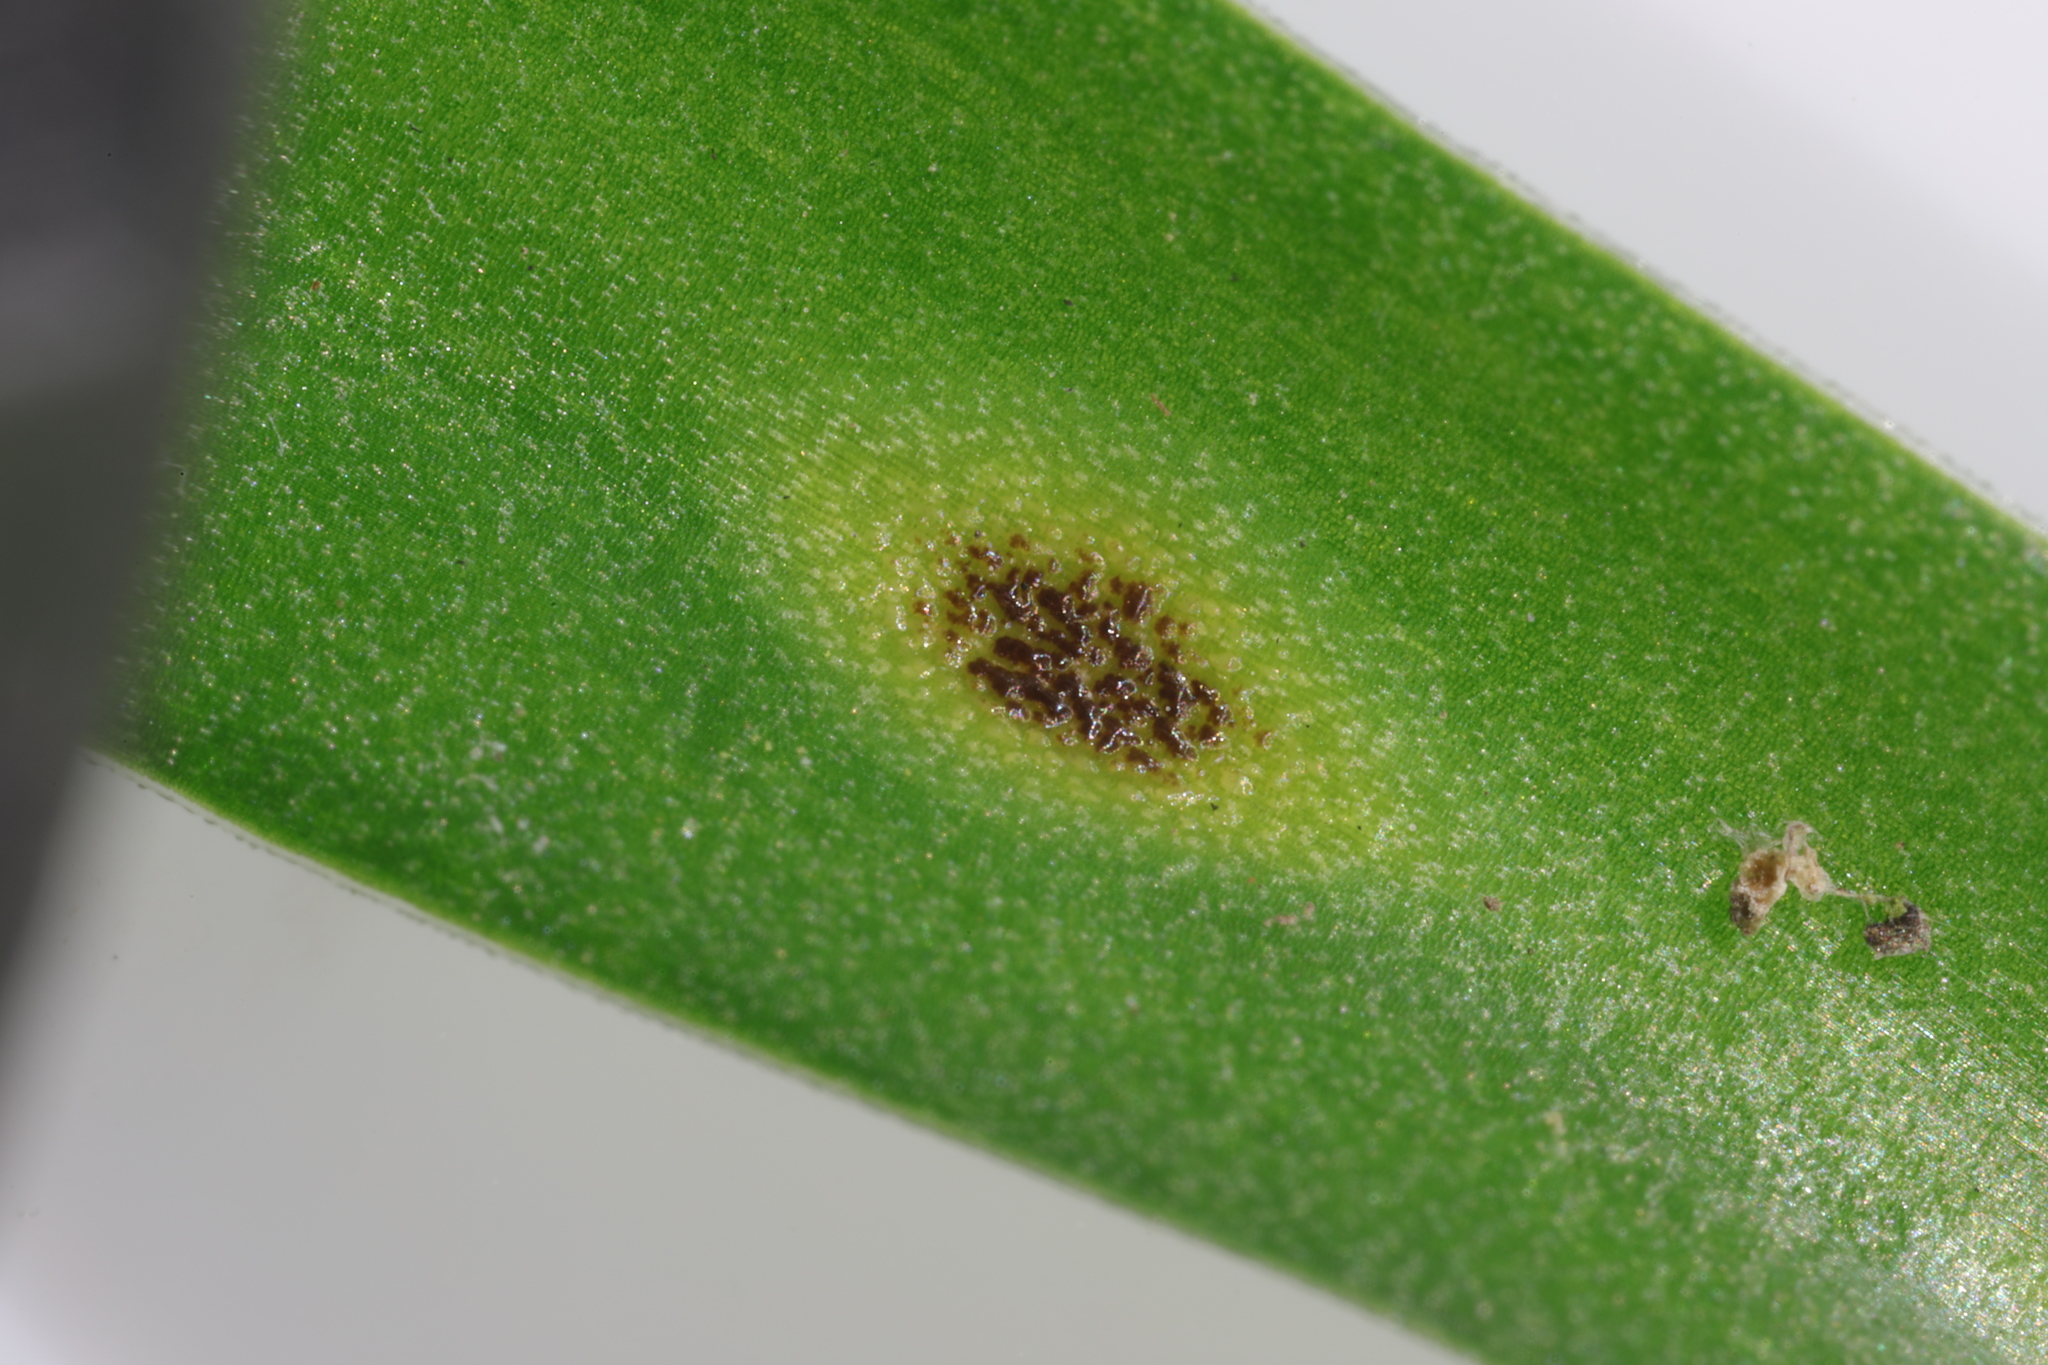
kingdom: Fungi
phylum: Basidiomycota
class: Pucciniomycetes
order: Pucciniales
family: Pucciniaceae
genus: Uromyces
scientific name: Uromyces hyacinthi
